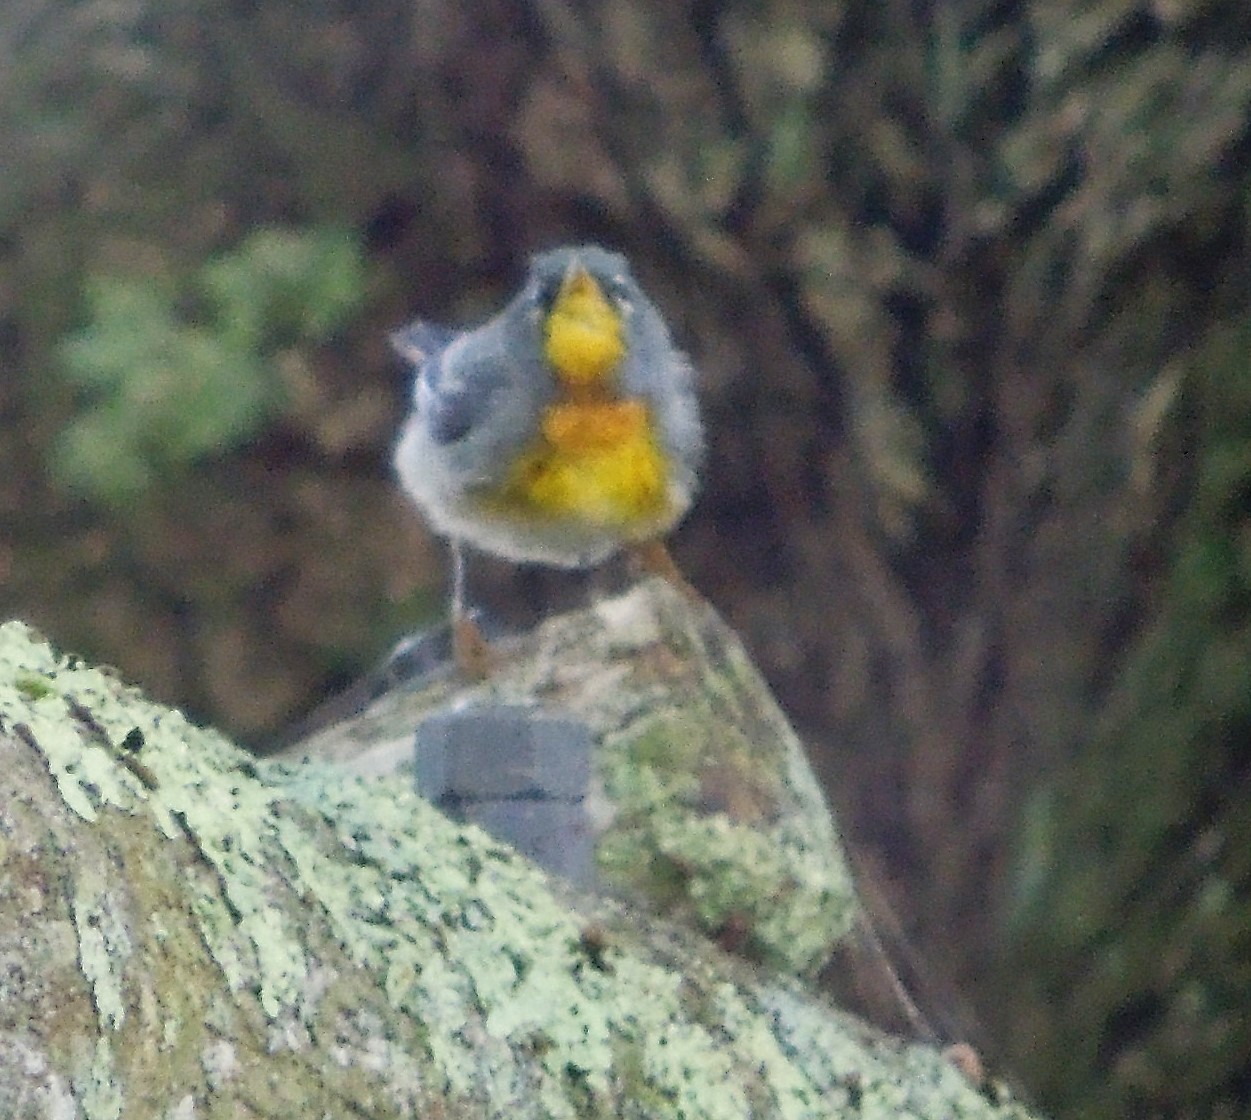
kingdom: Animalia
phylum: Chordata
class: Aves
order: Passeriformes
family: Parulidae
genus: Setophaga
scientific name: Setophaga americana
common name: Northern parula
